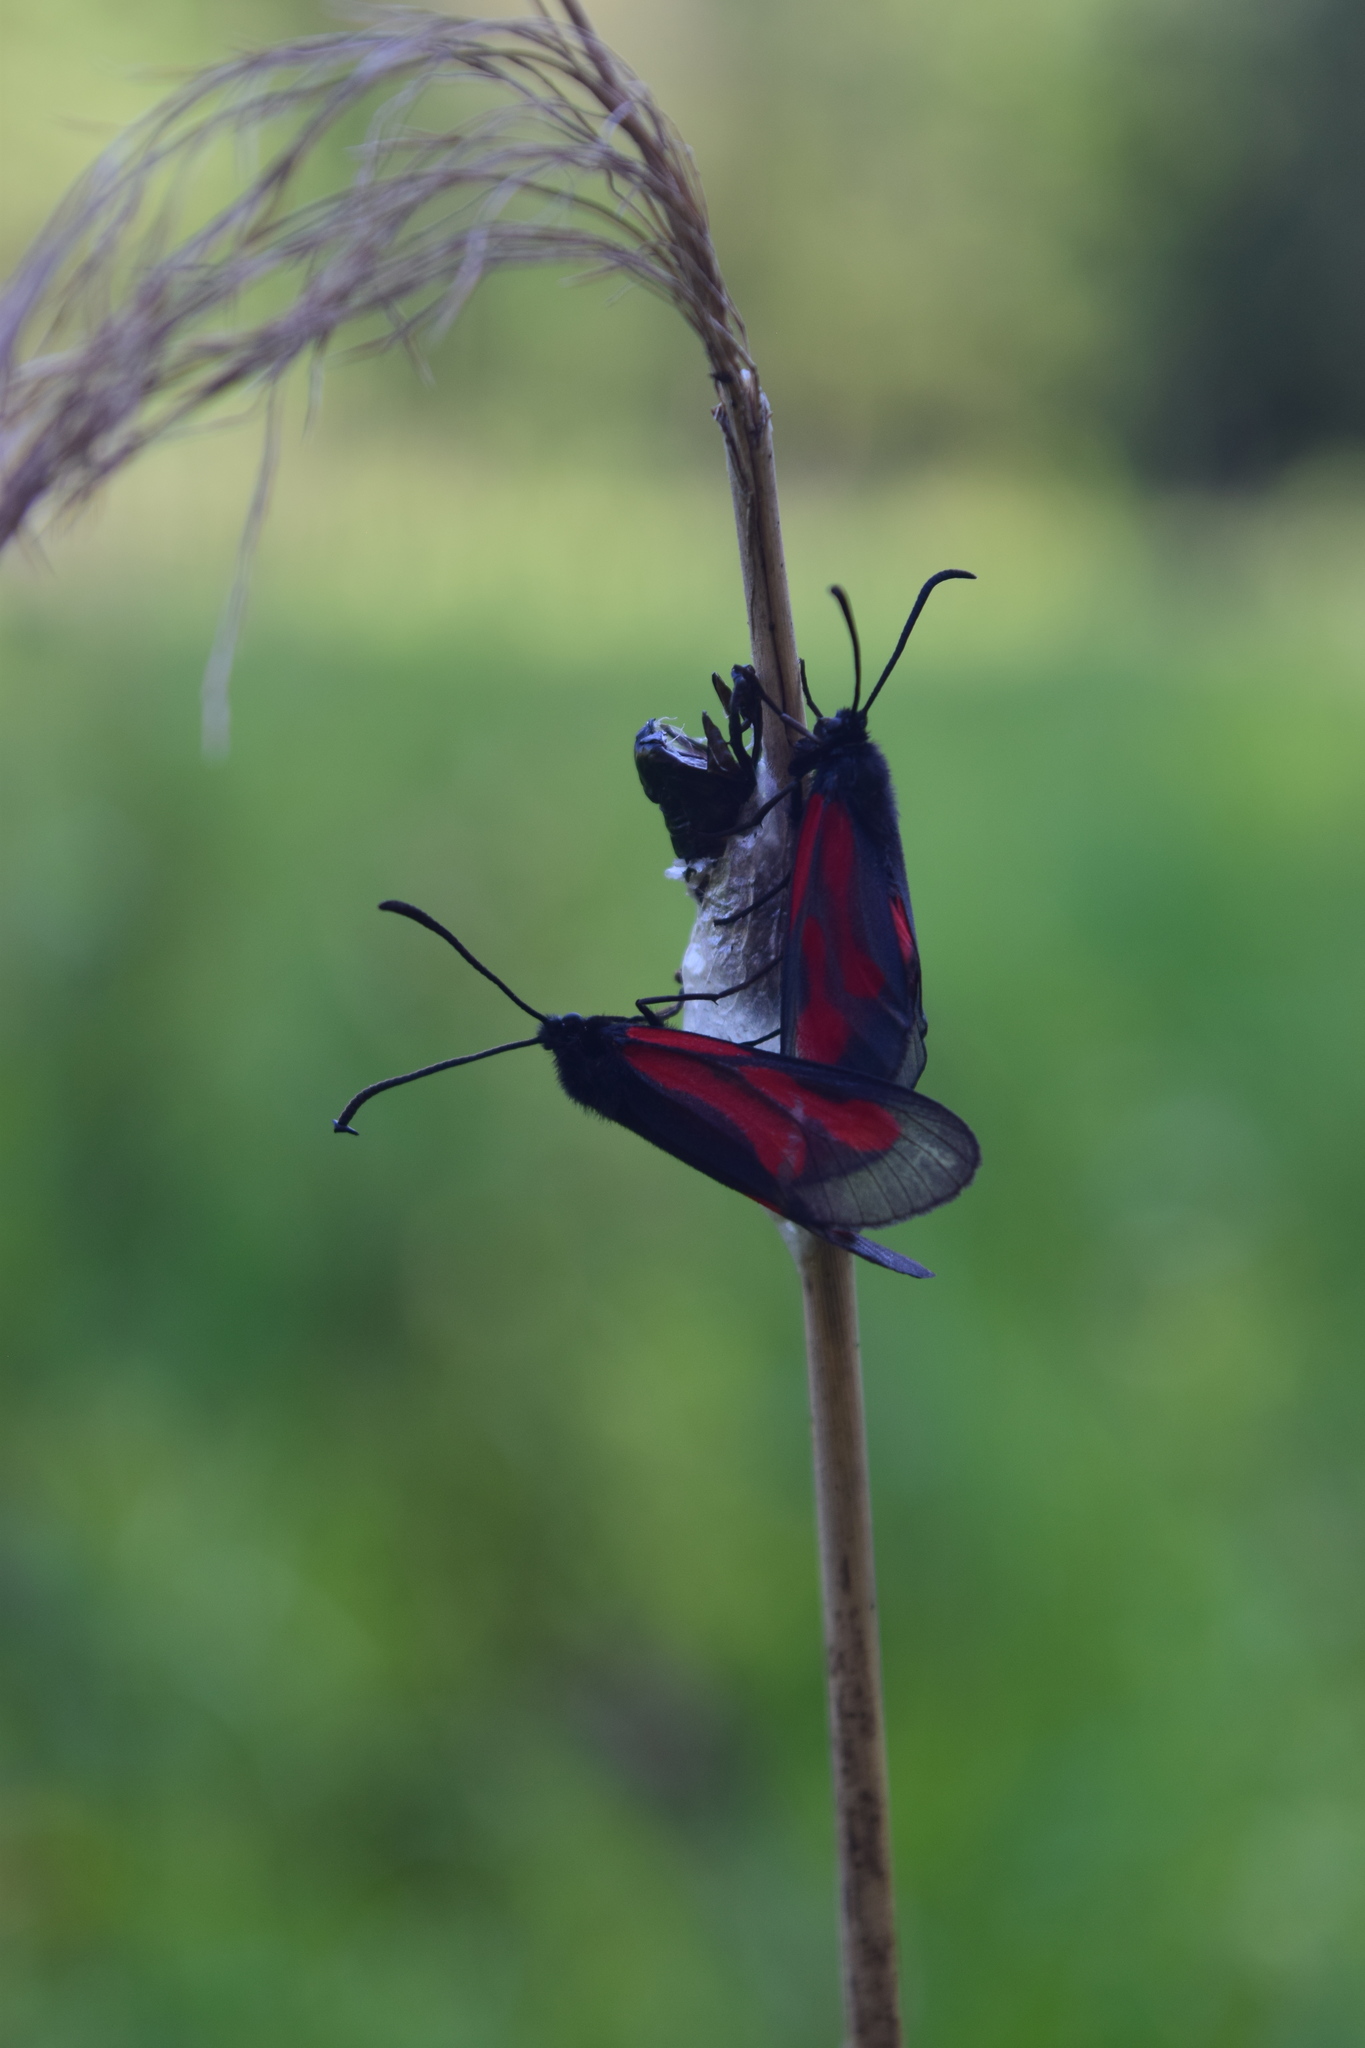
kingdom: Animalia
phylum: Arthropoda
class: Insecta
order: Lepidoptera
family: Zygaenidae
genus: Zygaena
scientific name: Zygaena osterodensis
